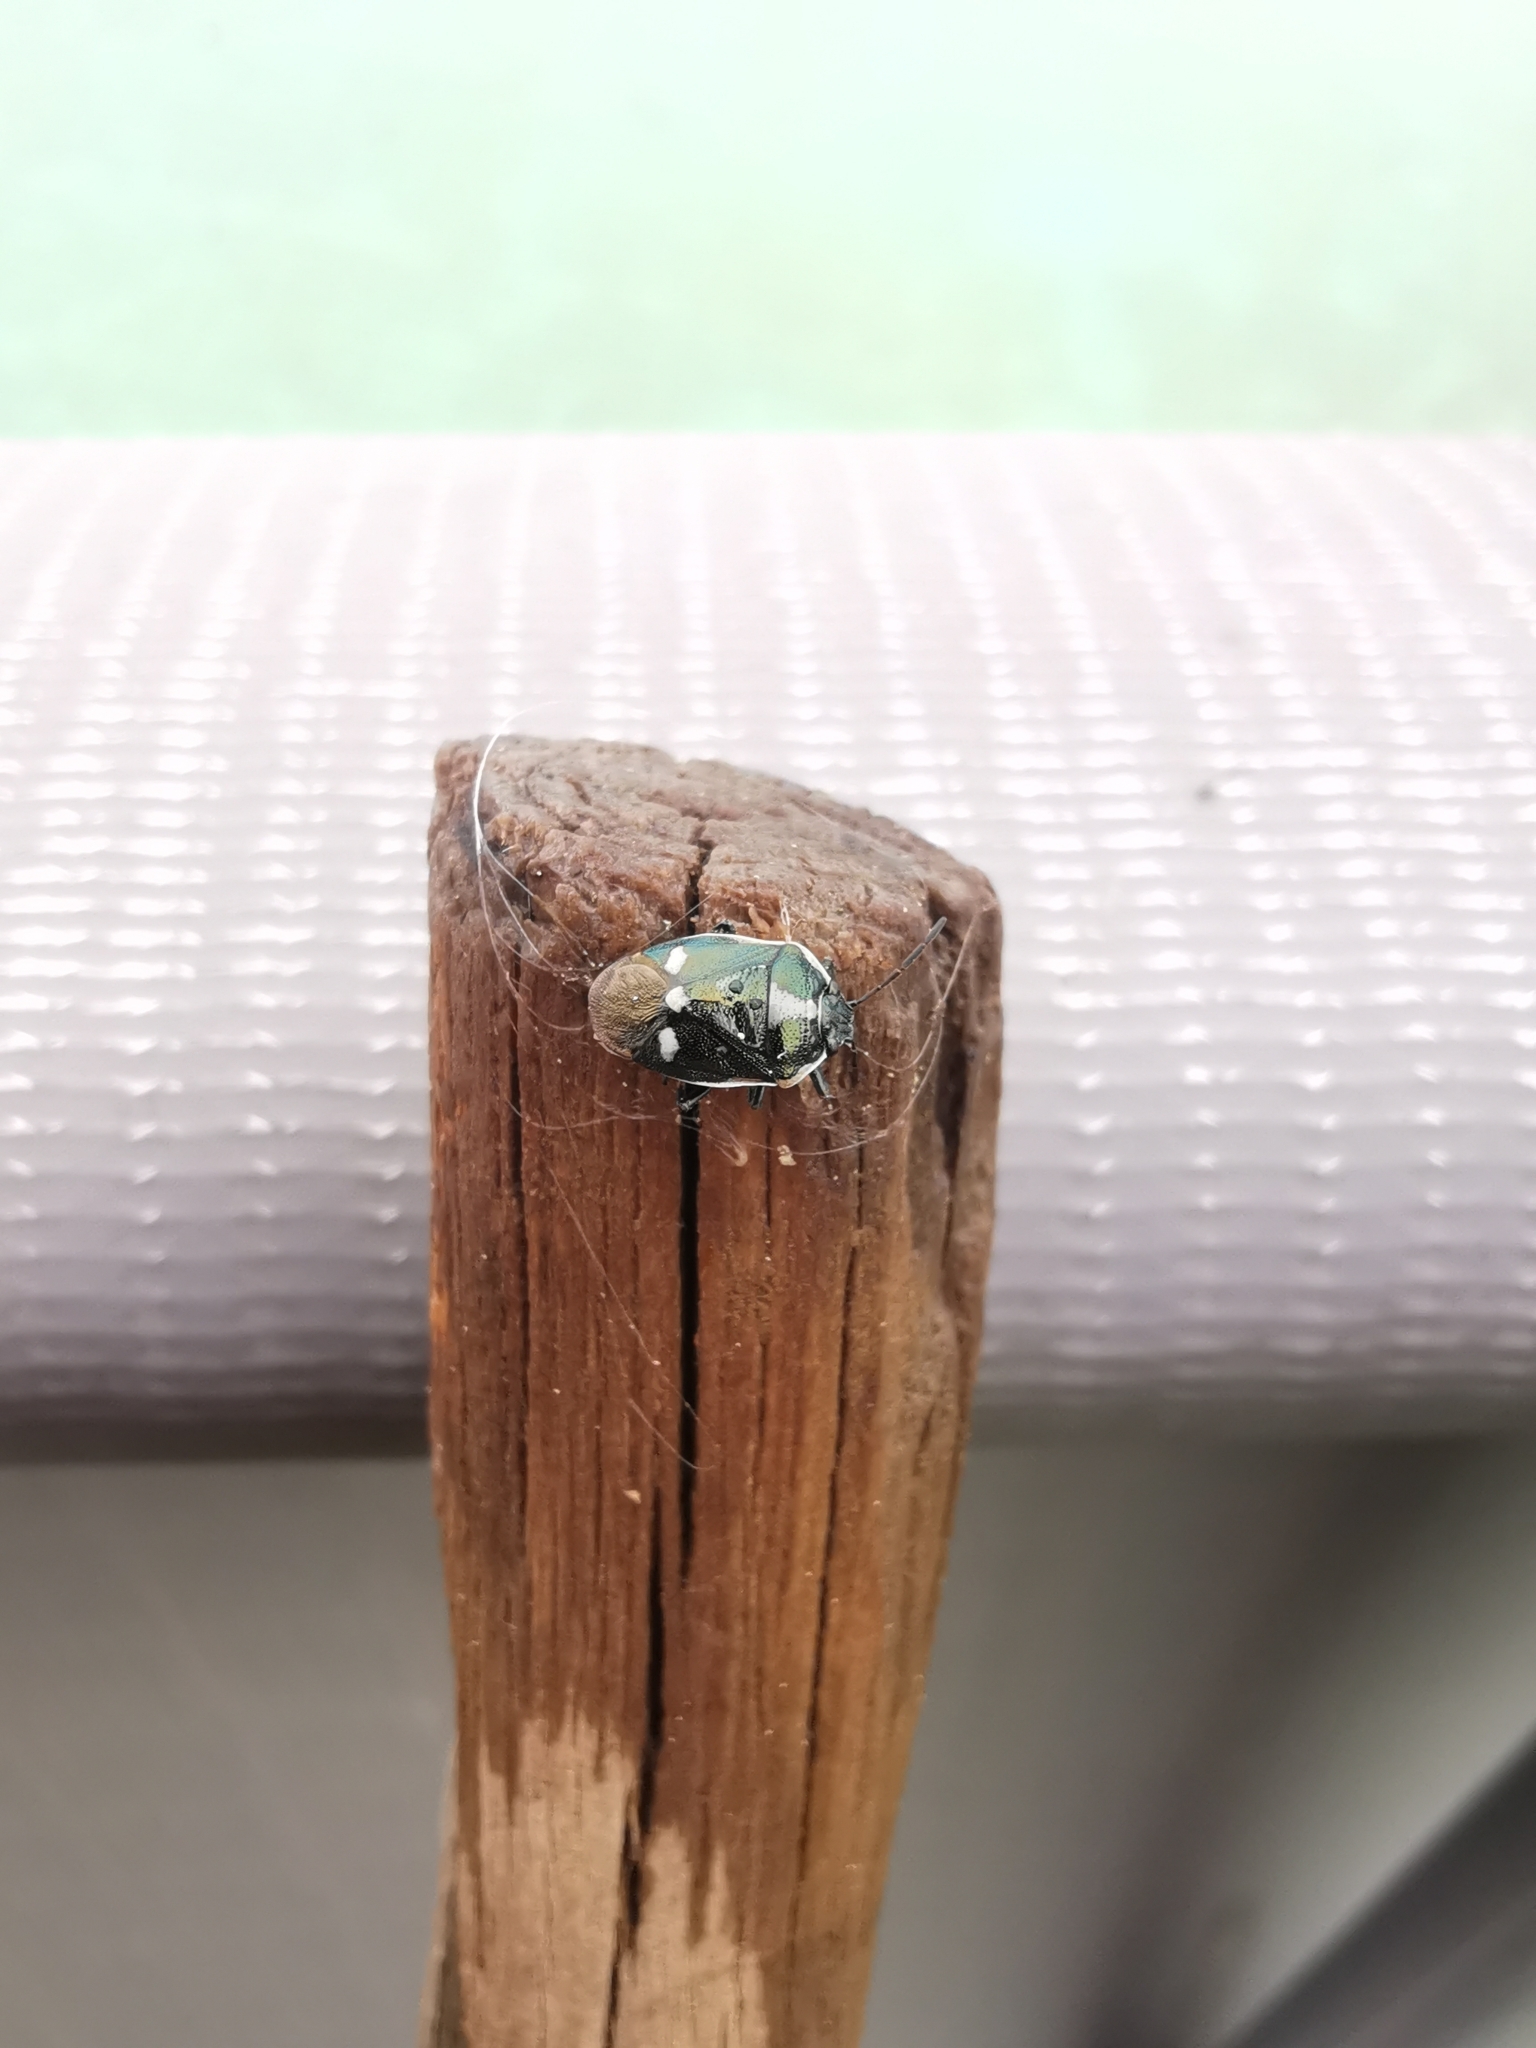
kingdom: Animalia
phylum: Arthropoda
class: Insecta
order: Hemiptera
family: Pentatomidae
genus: Eurydema
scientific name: Eurydema oleracea
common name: Cabbage bug
